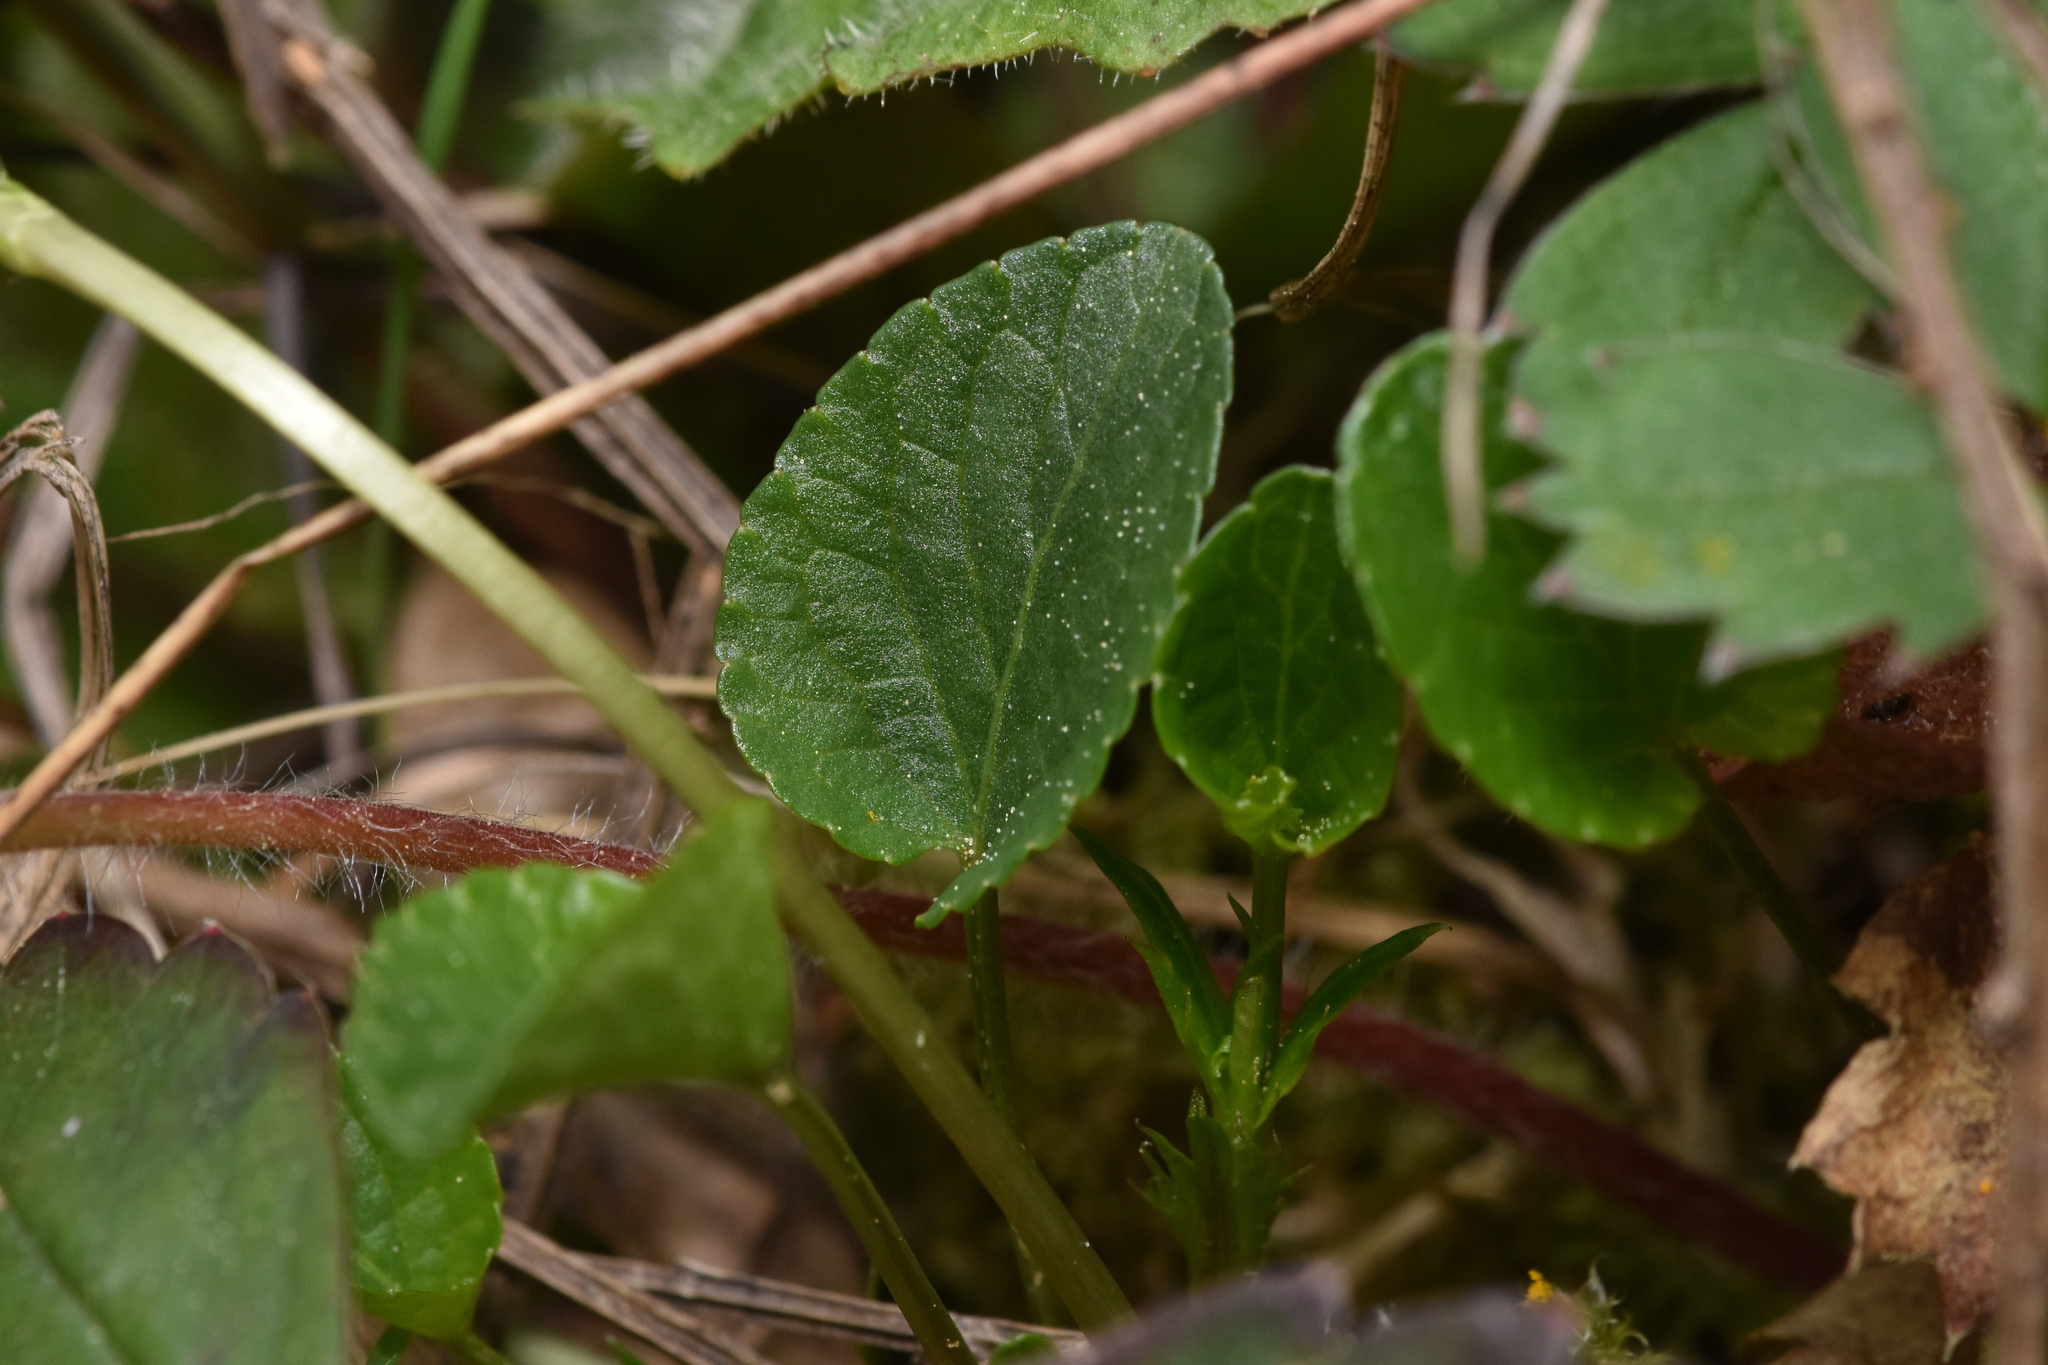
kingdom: Plantae
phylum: Tracheophyta
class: Magnoliopsida
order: Malpighiales
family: Violaceae
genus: Viola
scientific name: Viola adunca
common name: Sand violet
